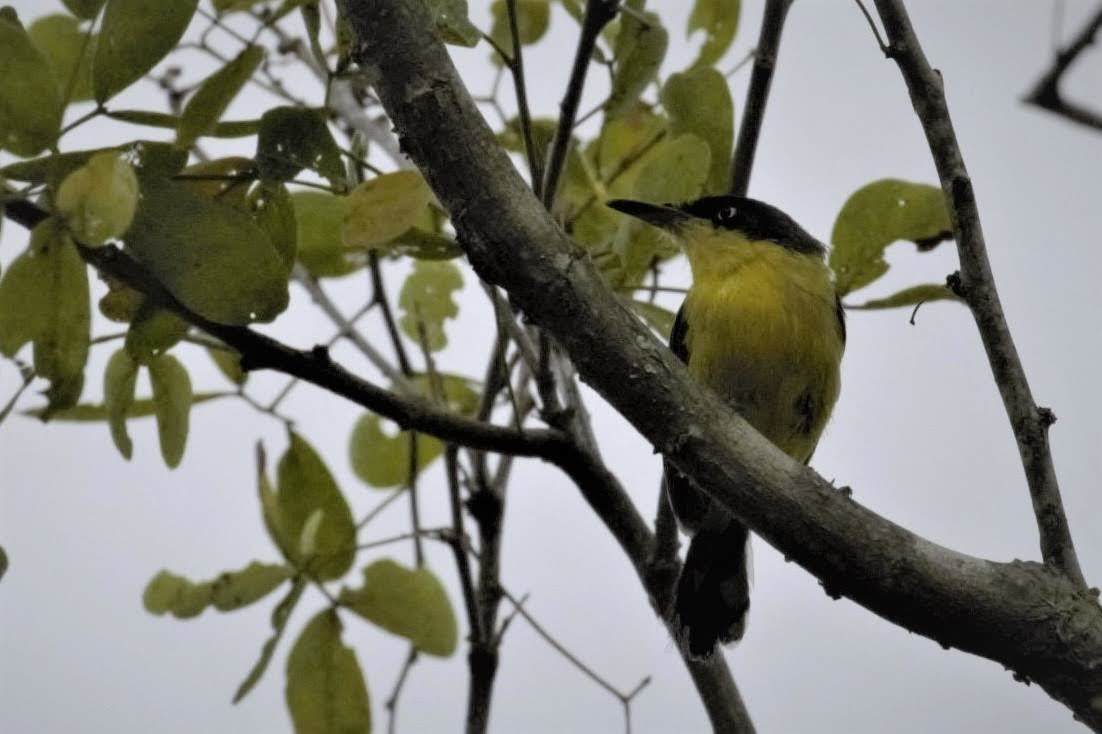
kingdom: Animalia
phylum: Chordata
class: Aves
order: Passeriformes
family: Tyrannidae
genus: Todirostrum
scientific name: Todirostrum cinereum
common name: Common tody-flycatcher
